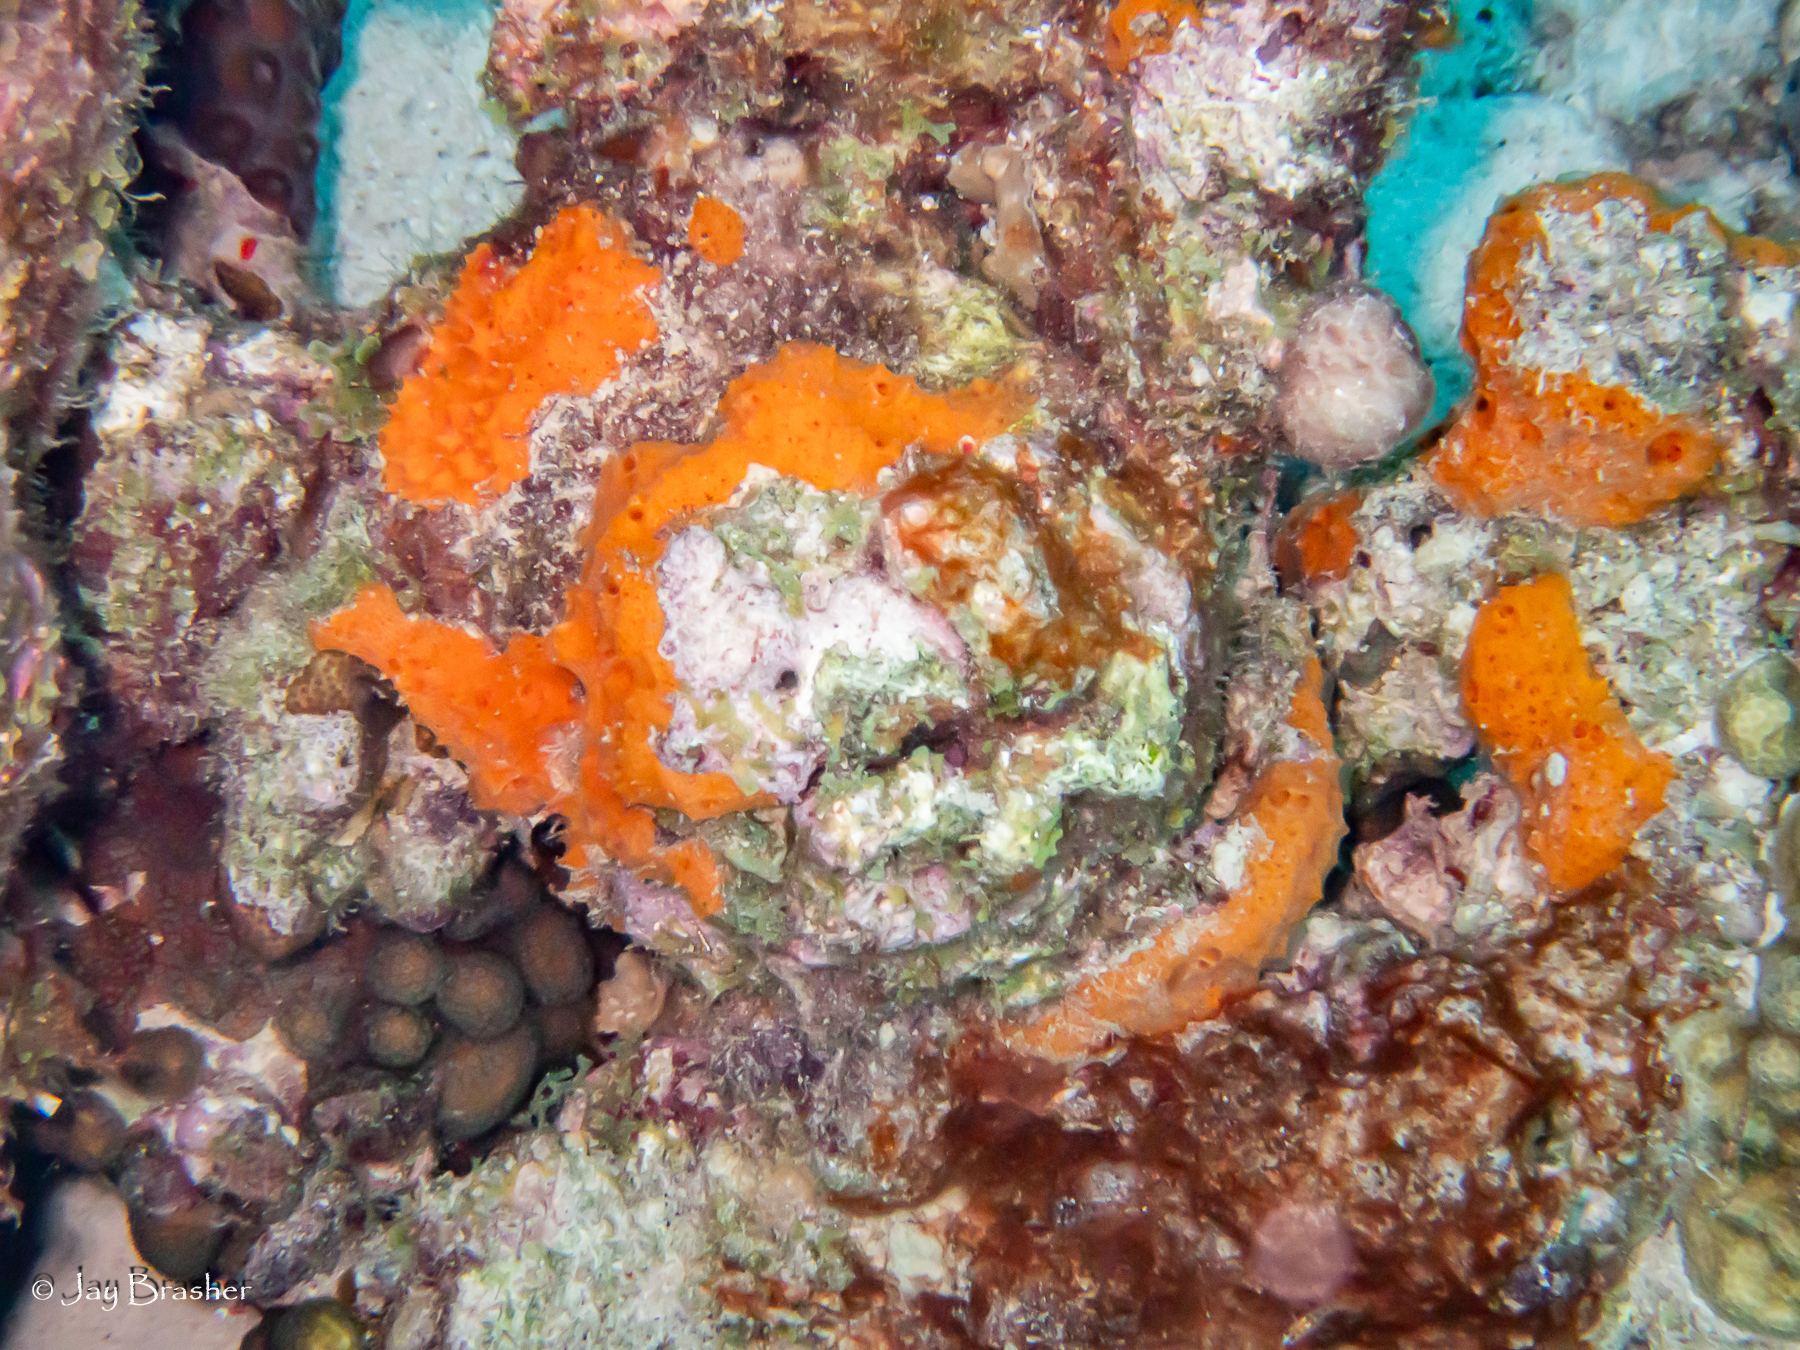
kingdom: Animalia
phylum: Porifera
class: Demospongiae
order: Scopalinida
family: Scopalinidae
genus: Scopalina
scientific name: Scopalina ruetzleri
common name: Orange lumpy encrusting sponge
